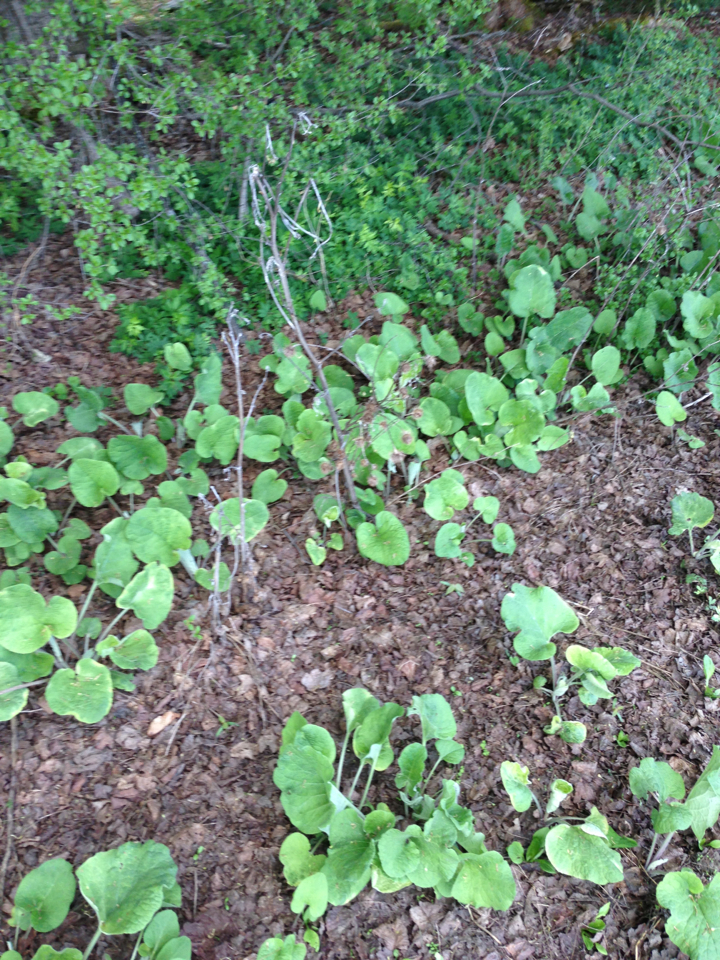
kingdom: Plantae
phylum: Tracheophyta
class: Magnoliopsida
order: Asterales
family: Asteraceae
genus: Arctium
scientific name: Arctium
